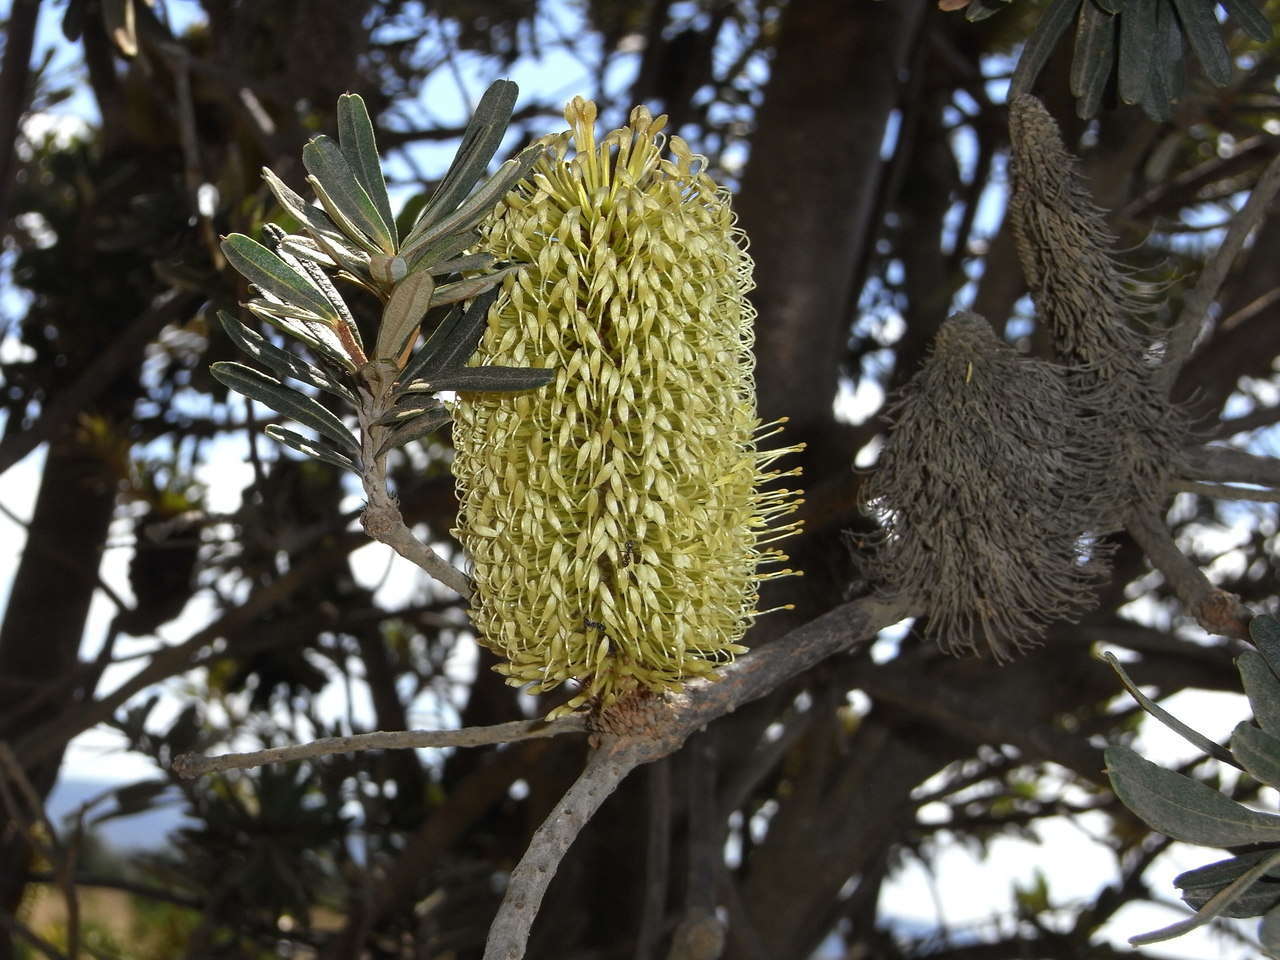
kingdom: Plantae
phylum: Tracheophyta
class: Magnoliopsida
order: Proteales
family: Proteaceae
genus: Banksia
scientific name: Banksia marginata
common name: Silver banksia
